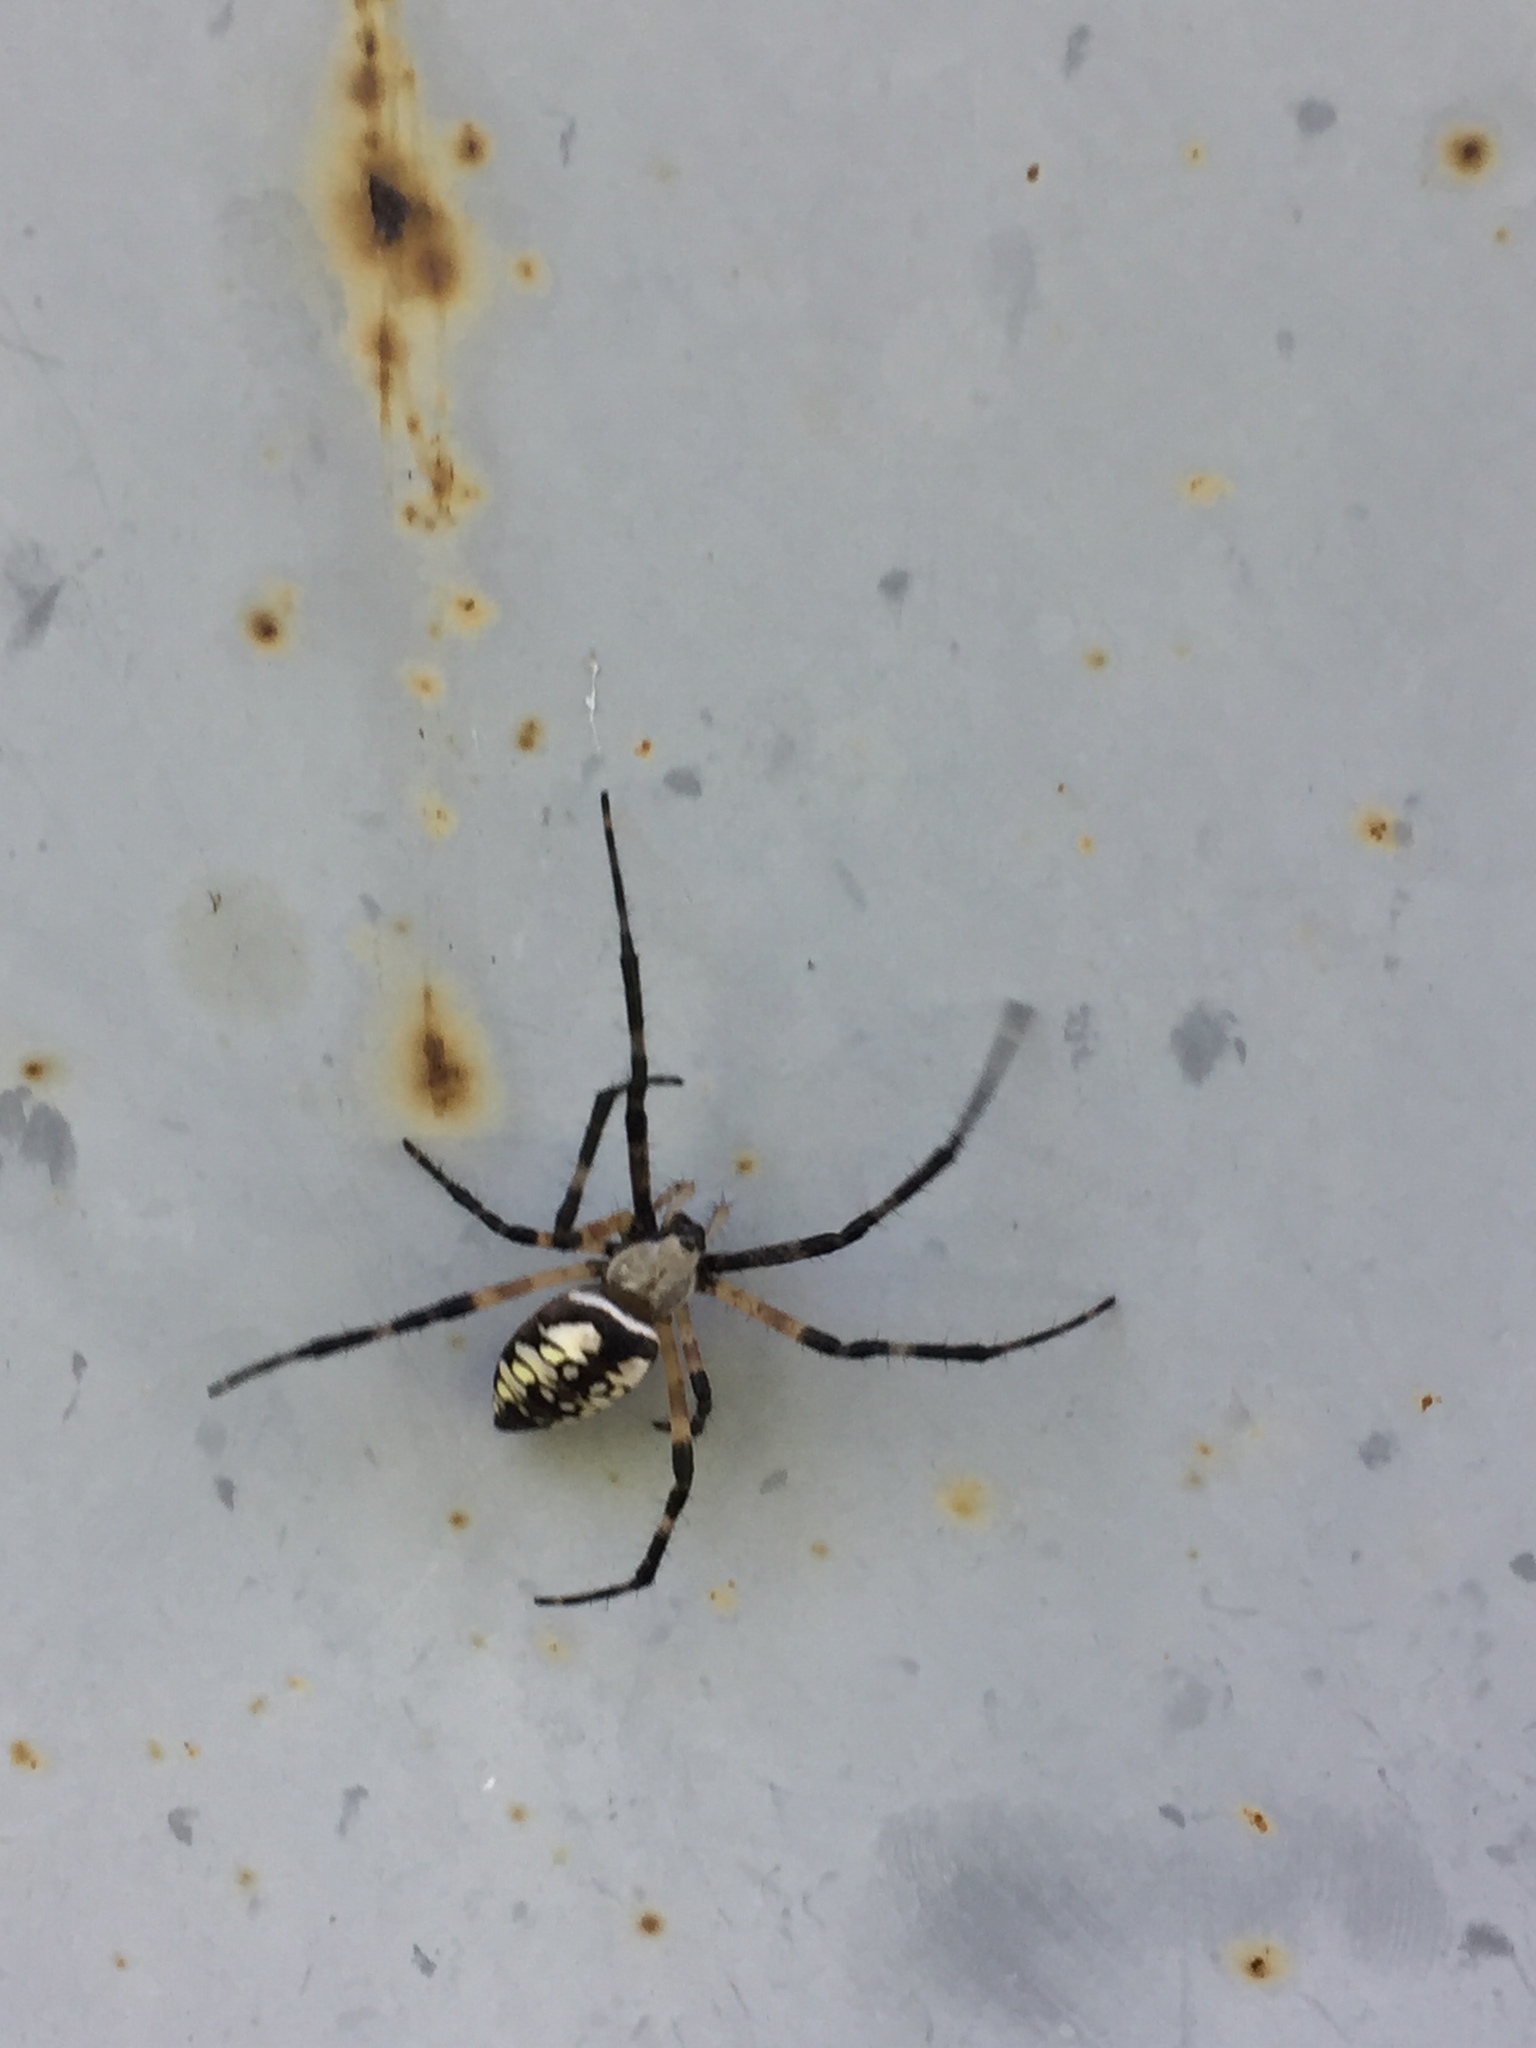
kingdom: Animalia
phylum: Arthropoda
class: Arachnida
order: Araneae
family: Araneidae
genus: Argiope
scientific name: Argiope aurantia
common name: Orb weavers
